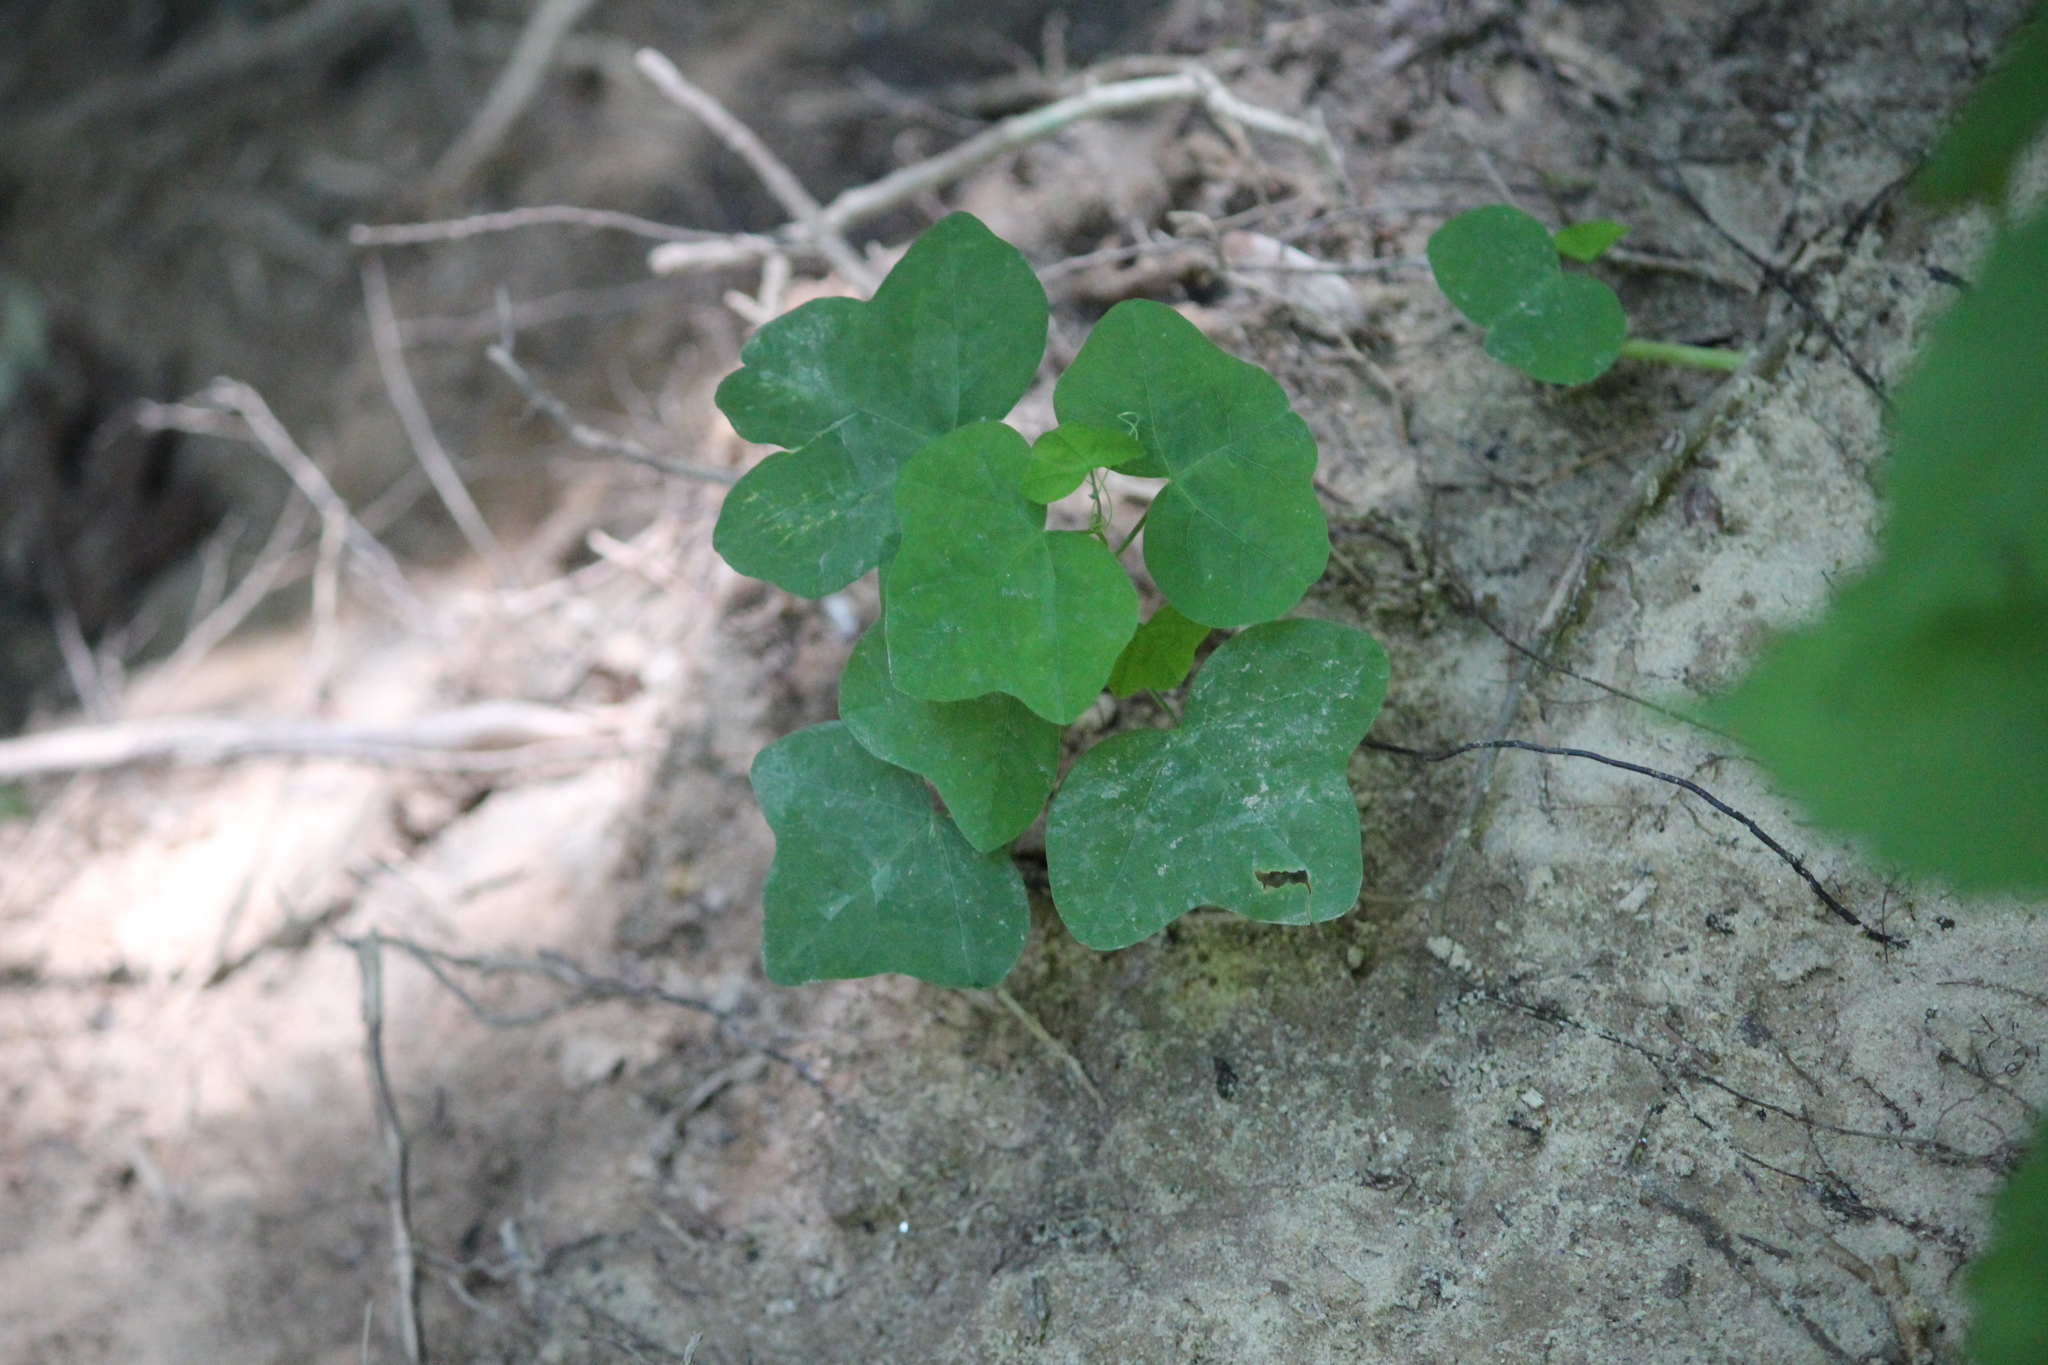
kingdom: Plantae
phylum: Tracheophyta
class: Magnoliopsida
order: Malpighiales
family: Passifloraceae
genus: Passiflora
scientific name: Passiflora lutea
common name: Yellow passionflower
